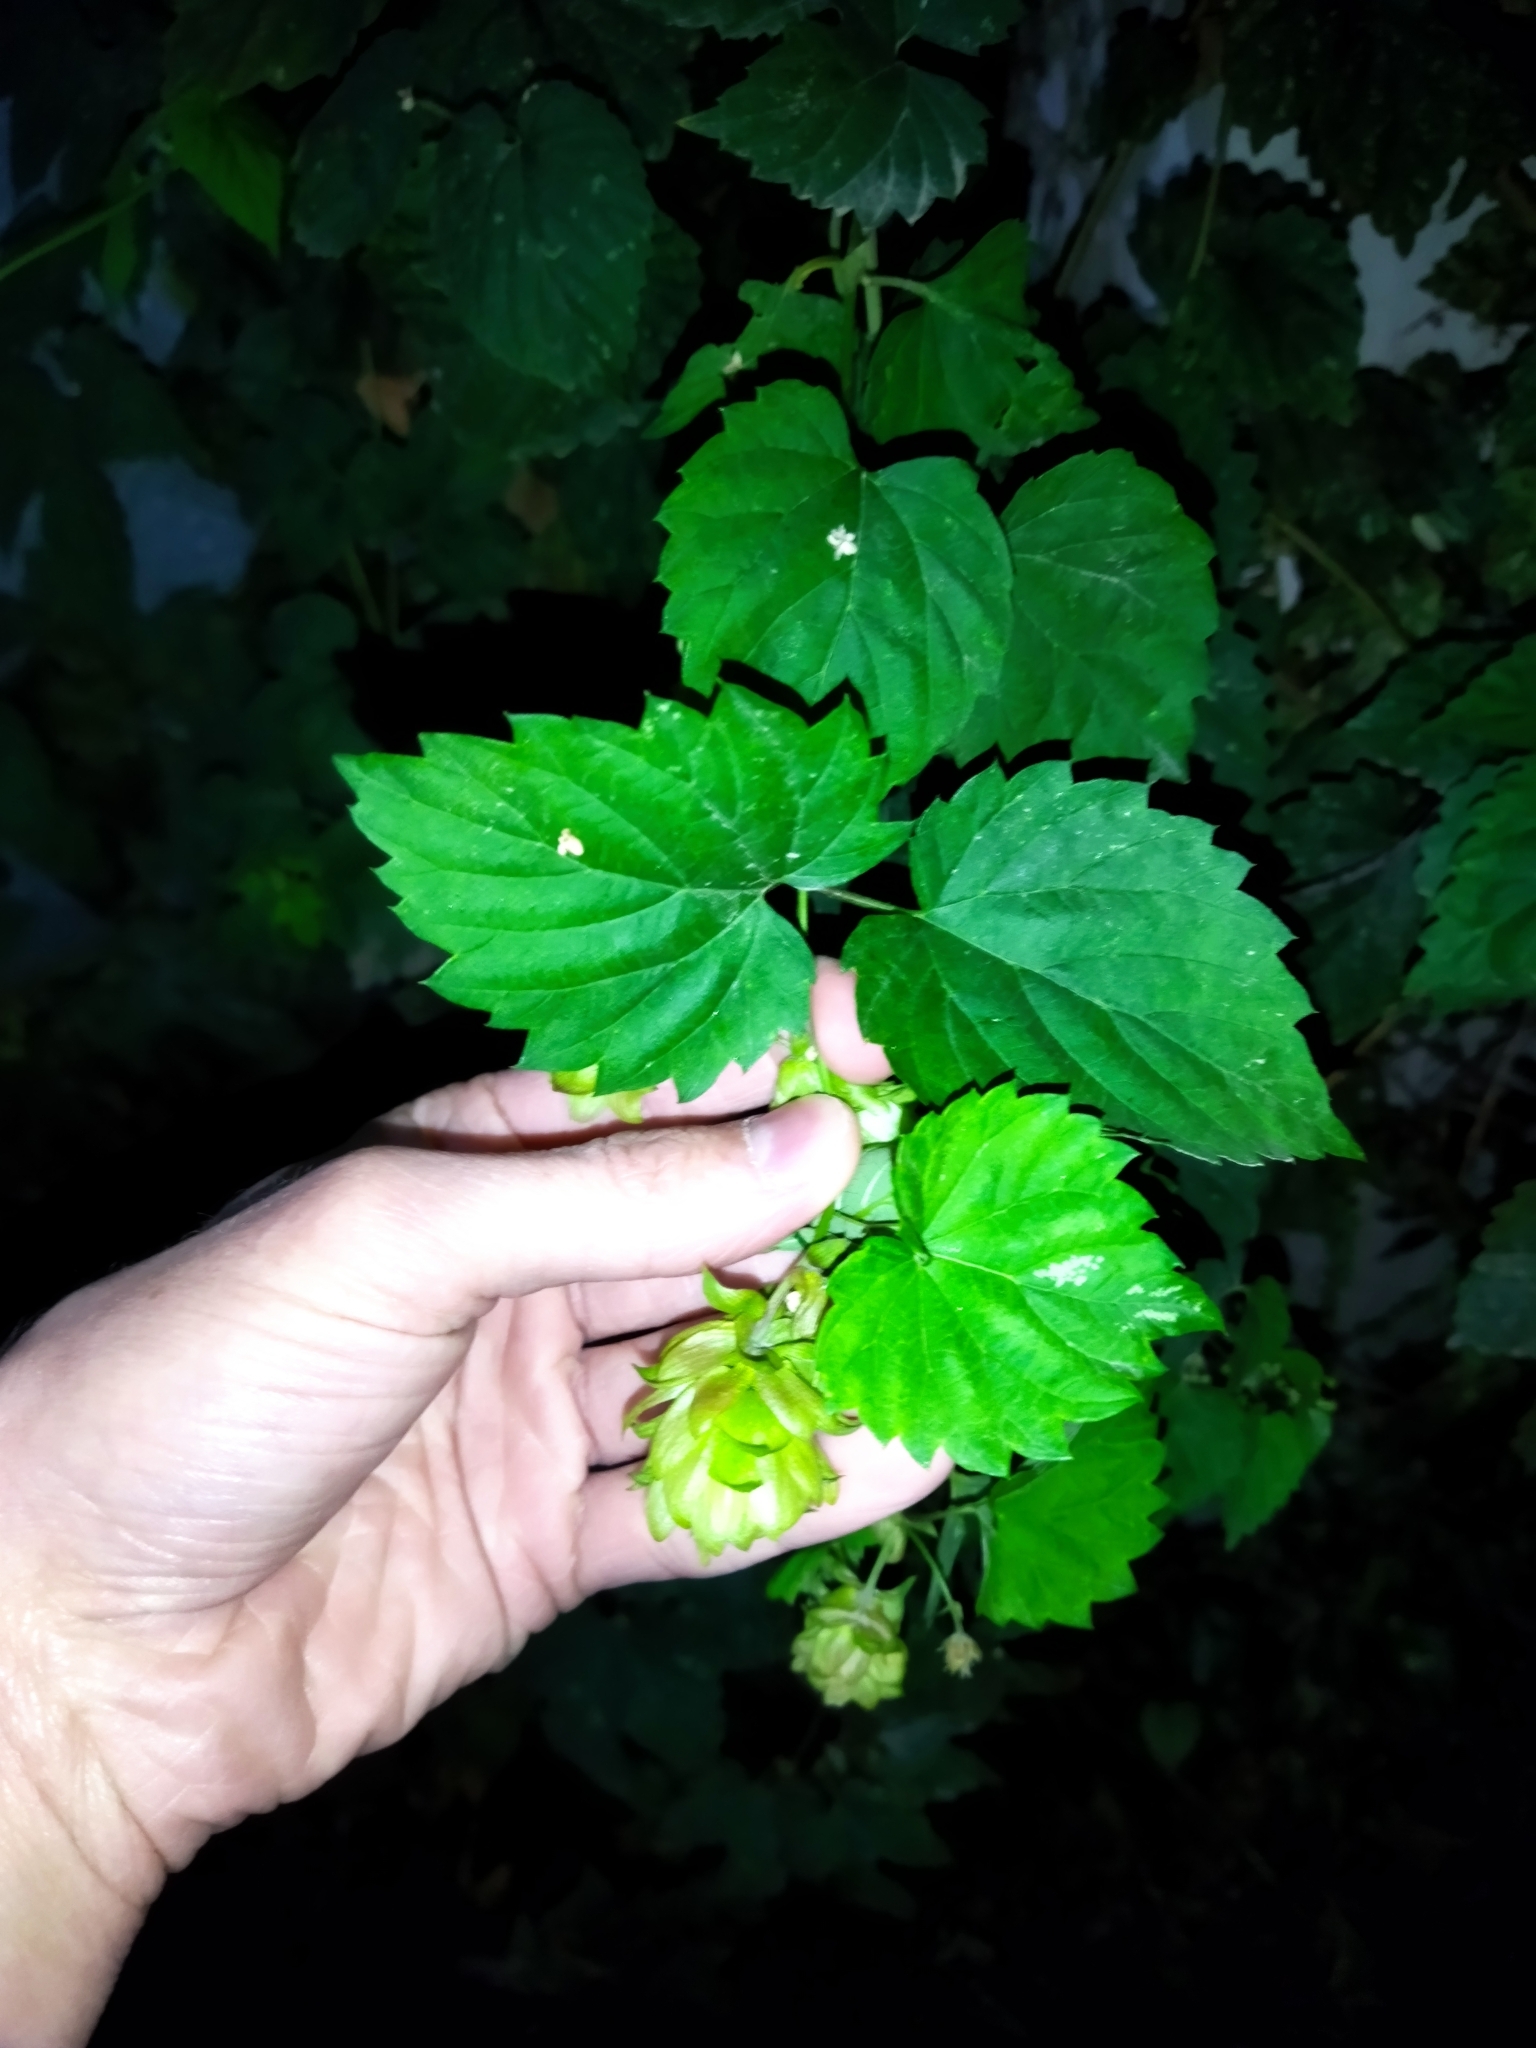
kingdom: Plantae
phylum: Tracheophyta
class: Magnoliopsida
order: Rosales
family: Cannabaceae
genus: Humulus
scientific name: Humulus lupulus
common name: Hop
